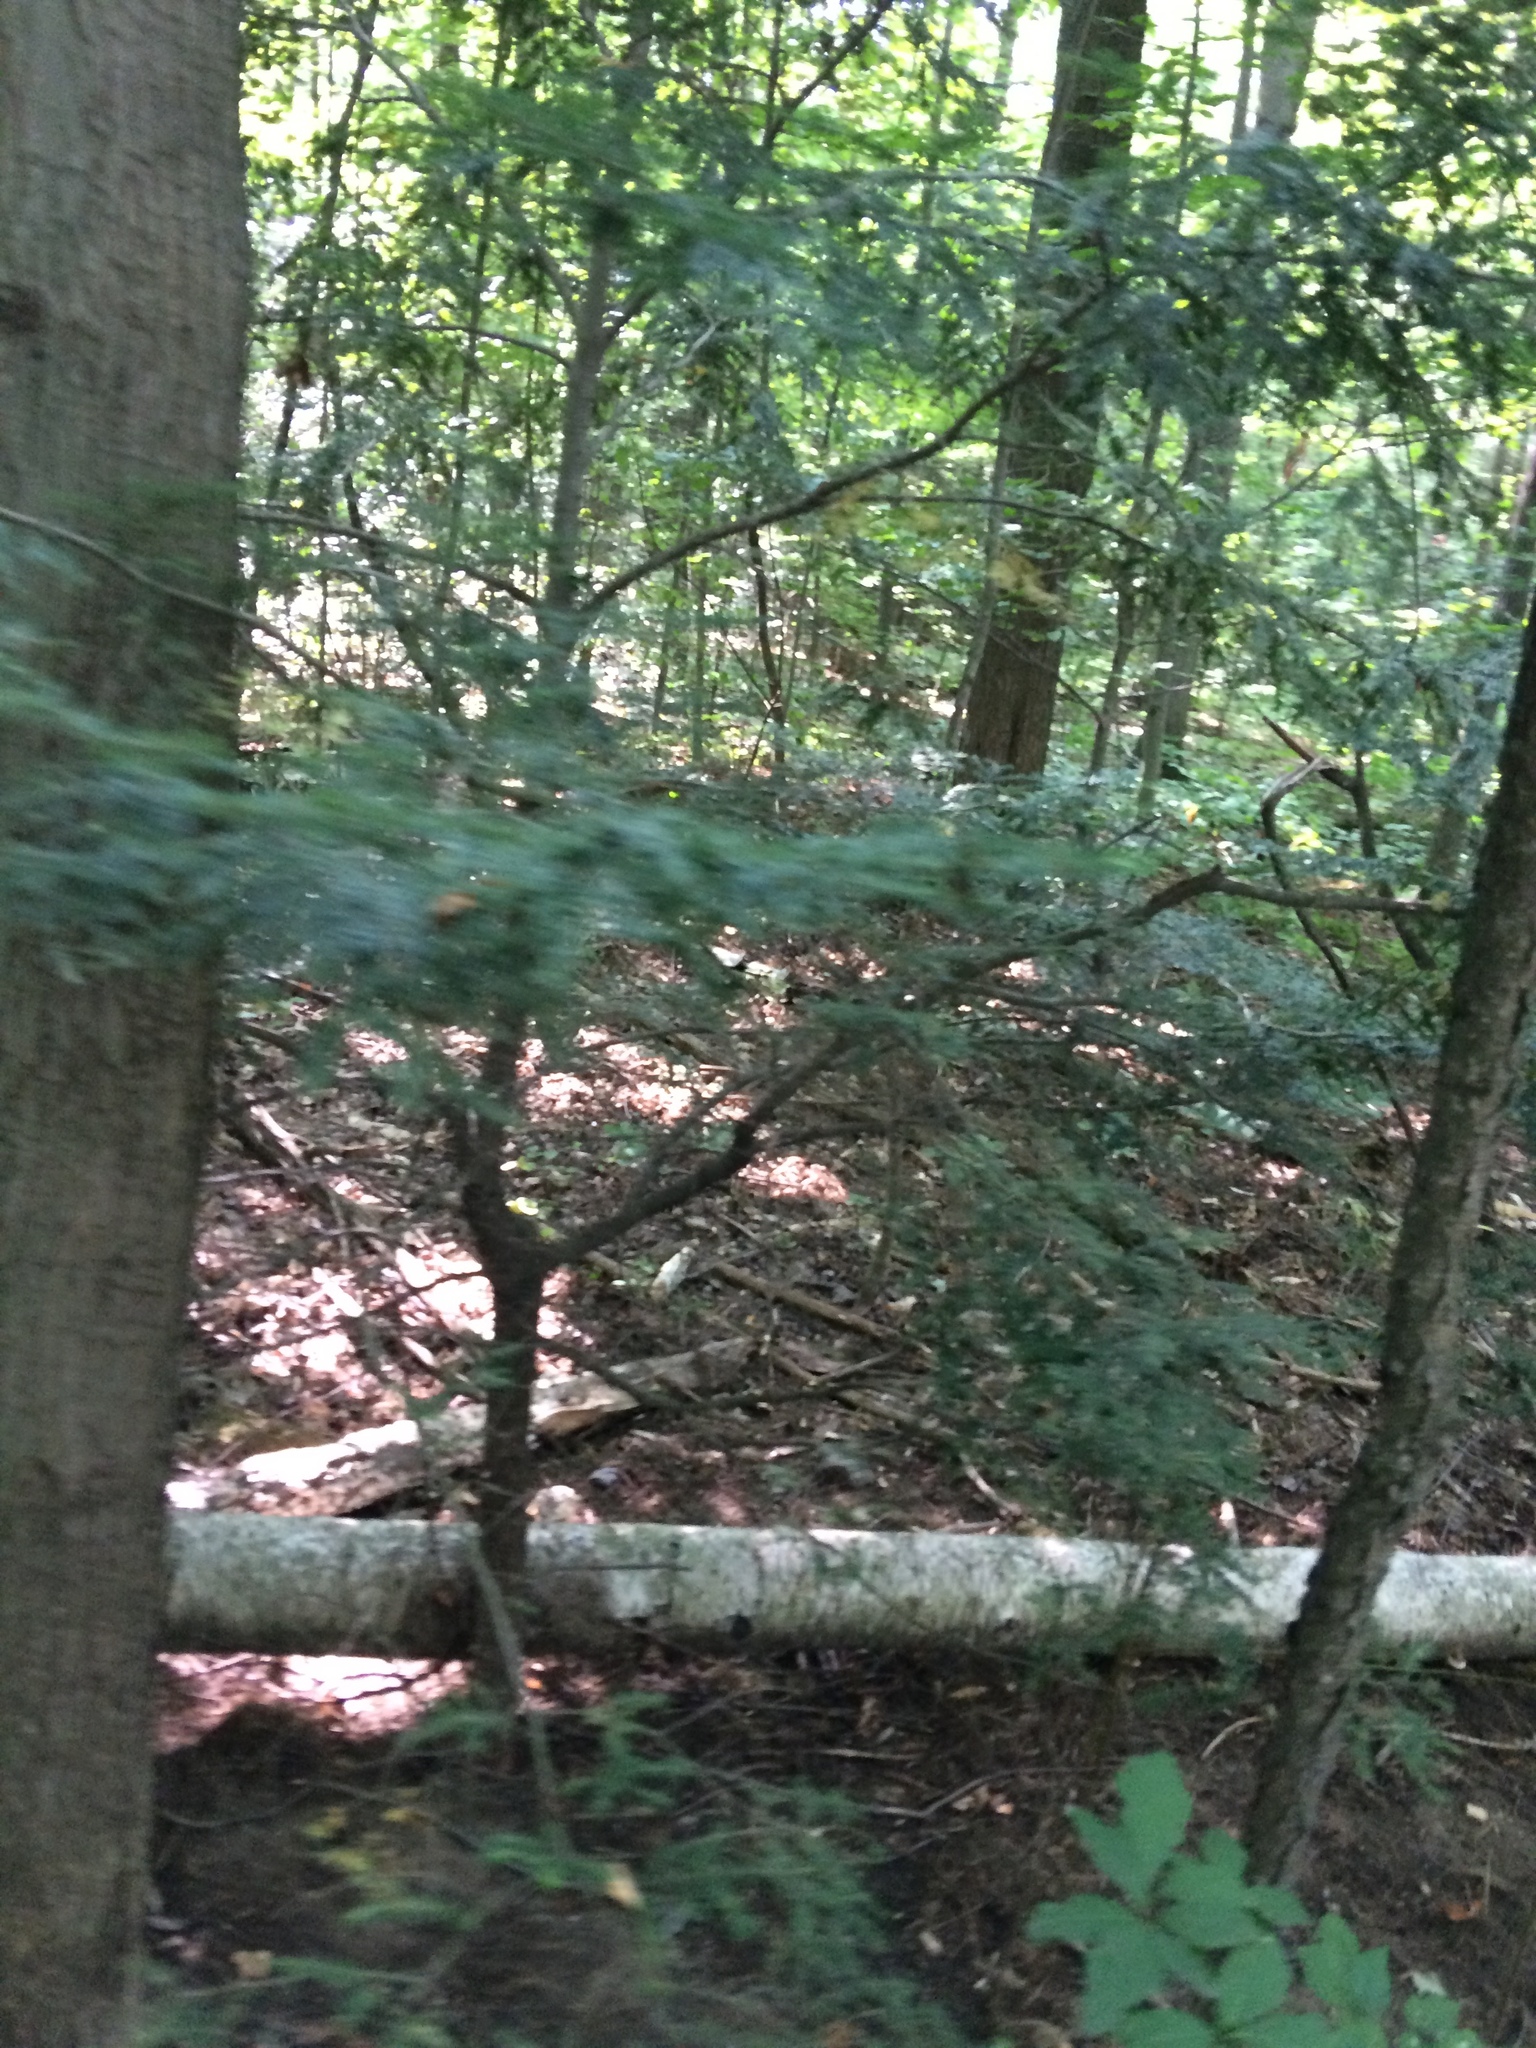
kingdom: Plantae
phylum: Tracheophyta
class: Pinopsida
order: Pinales
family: Pinaceae
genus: Tsuga
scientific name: Tsuga canadensis
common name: Eastern hemlock
